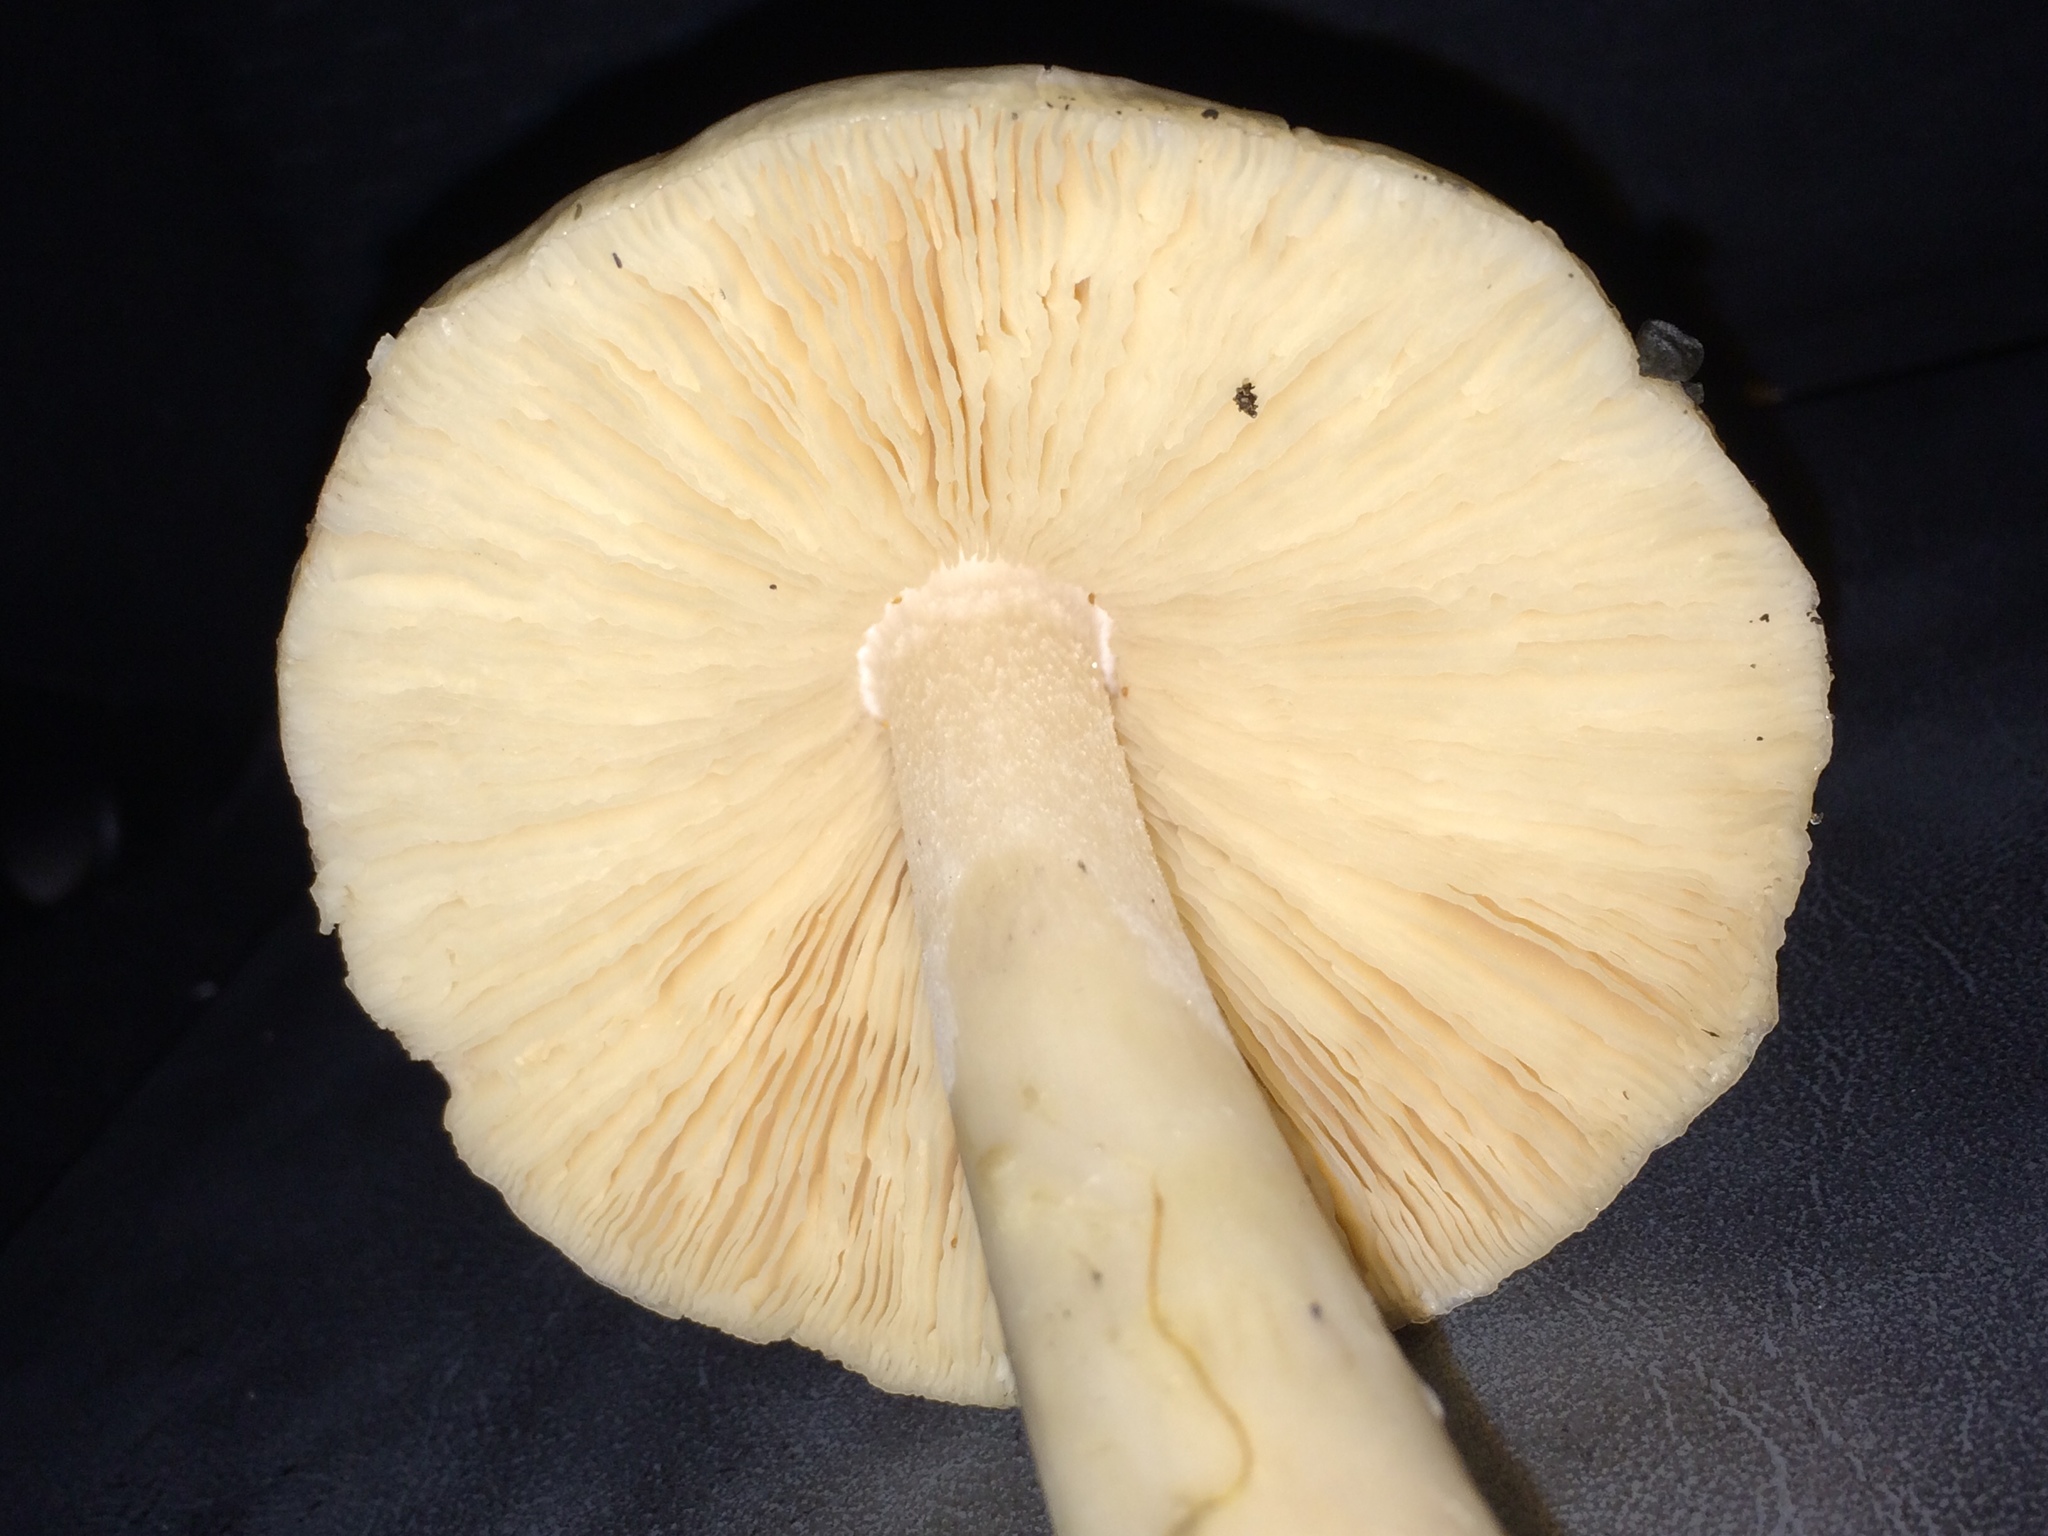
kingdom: Fungi
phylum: Basidiomycota
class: Agaricomycetes
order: Agaricales
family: Pluteaceae
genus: Volvopluteus
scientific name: Volvopluteus gloiocephalus
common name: Stubble rosegill
